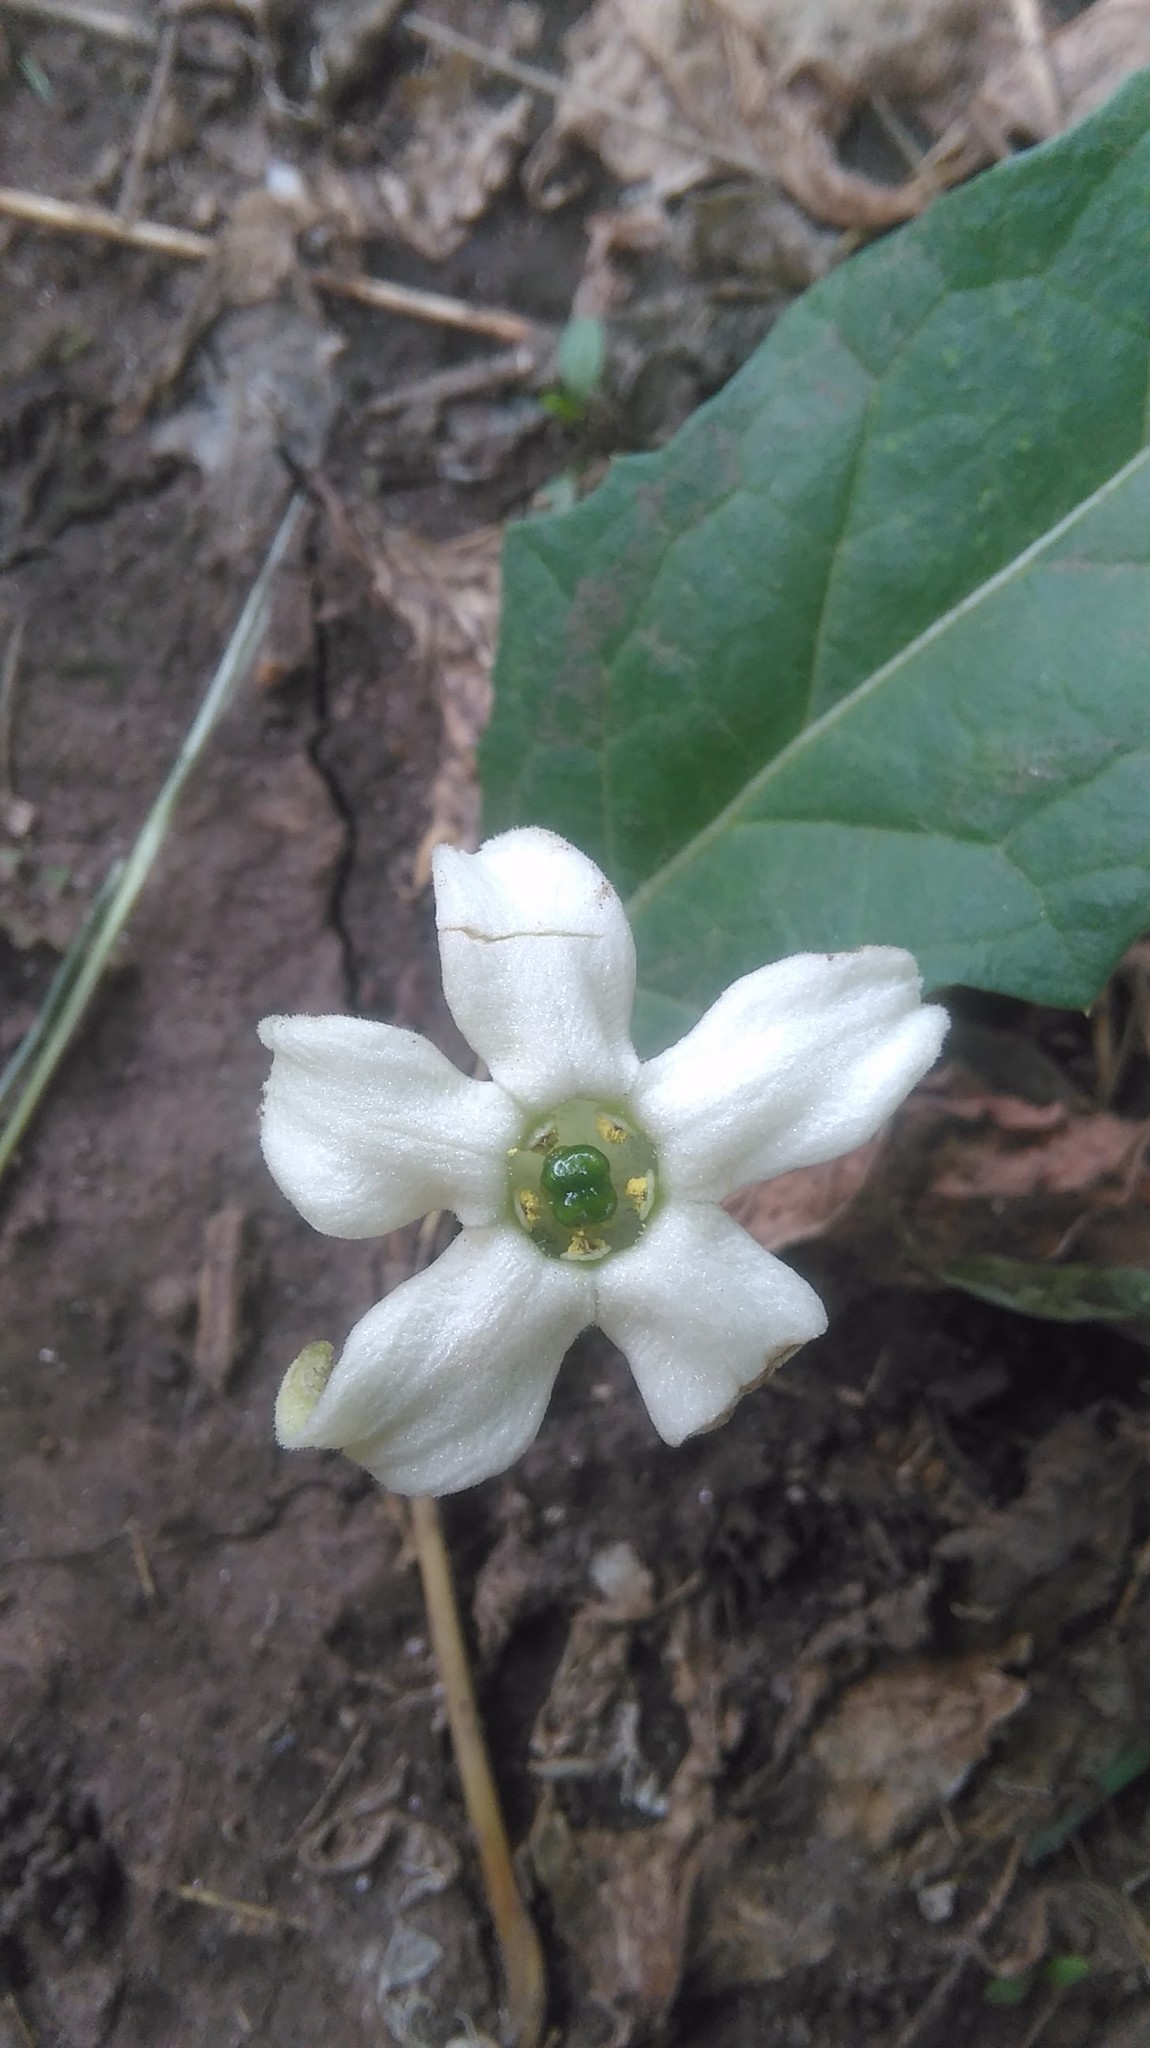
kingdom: Plantae
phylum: Tracheophyta
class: Magnoliopsida
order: Solanales
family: Solanaceae
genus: Jaborosa
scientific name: Jaborosa runcinata
